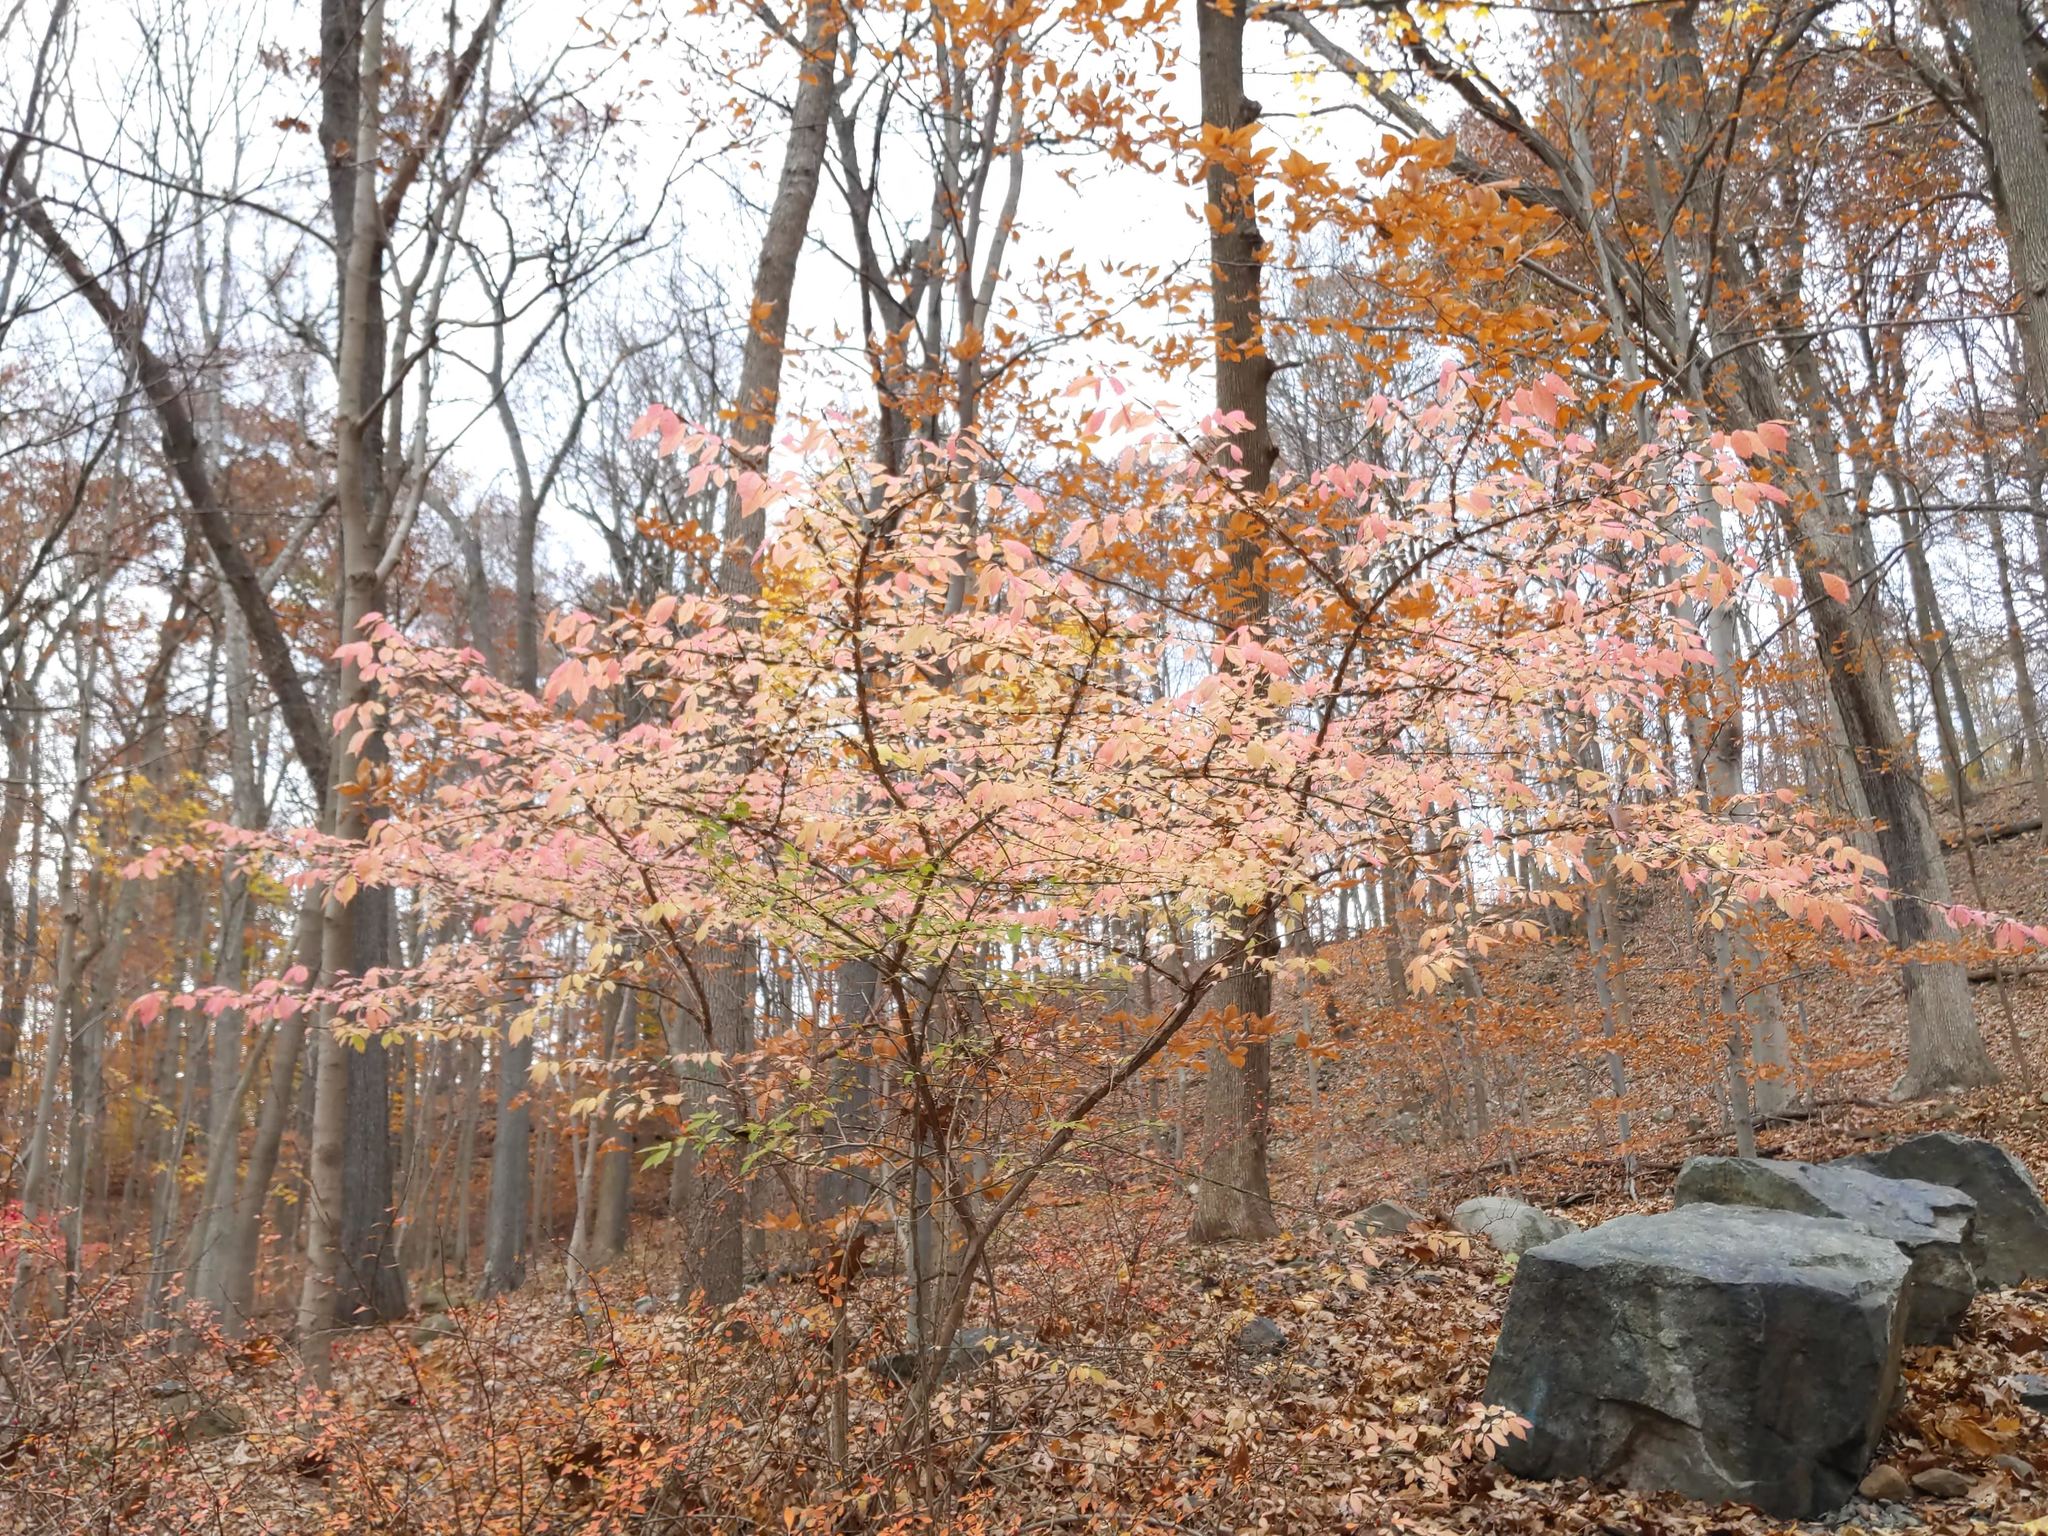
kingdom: Plantae
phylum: Tracheophyta
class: Magnoliopsida
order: Celastrales
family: Celastraceae
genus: Euonymus
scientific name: Euonymus alatus
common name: Winged euonymus
